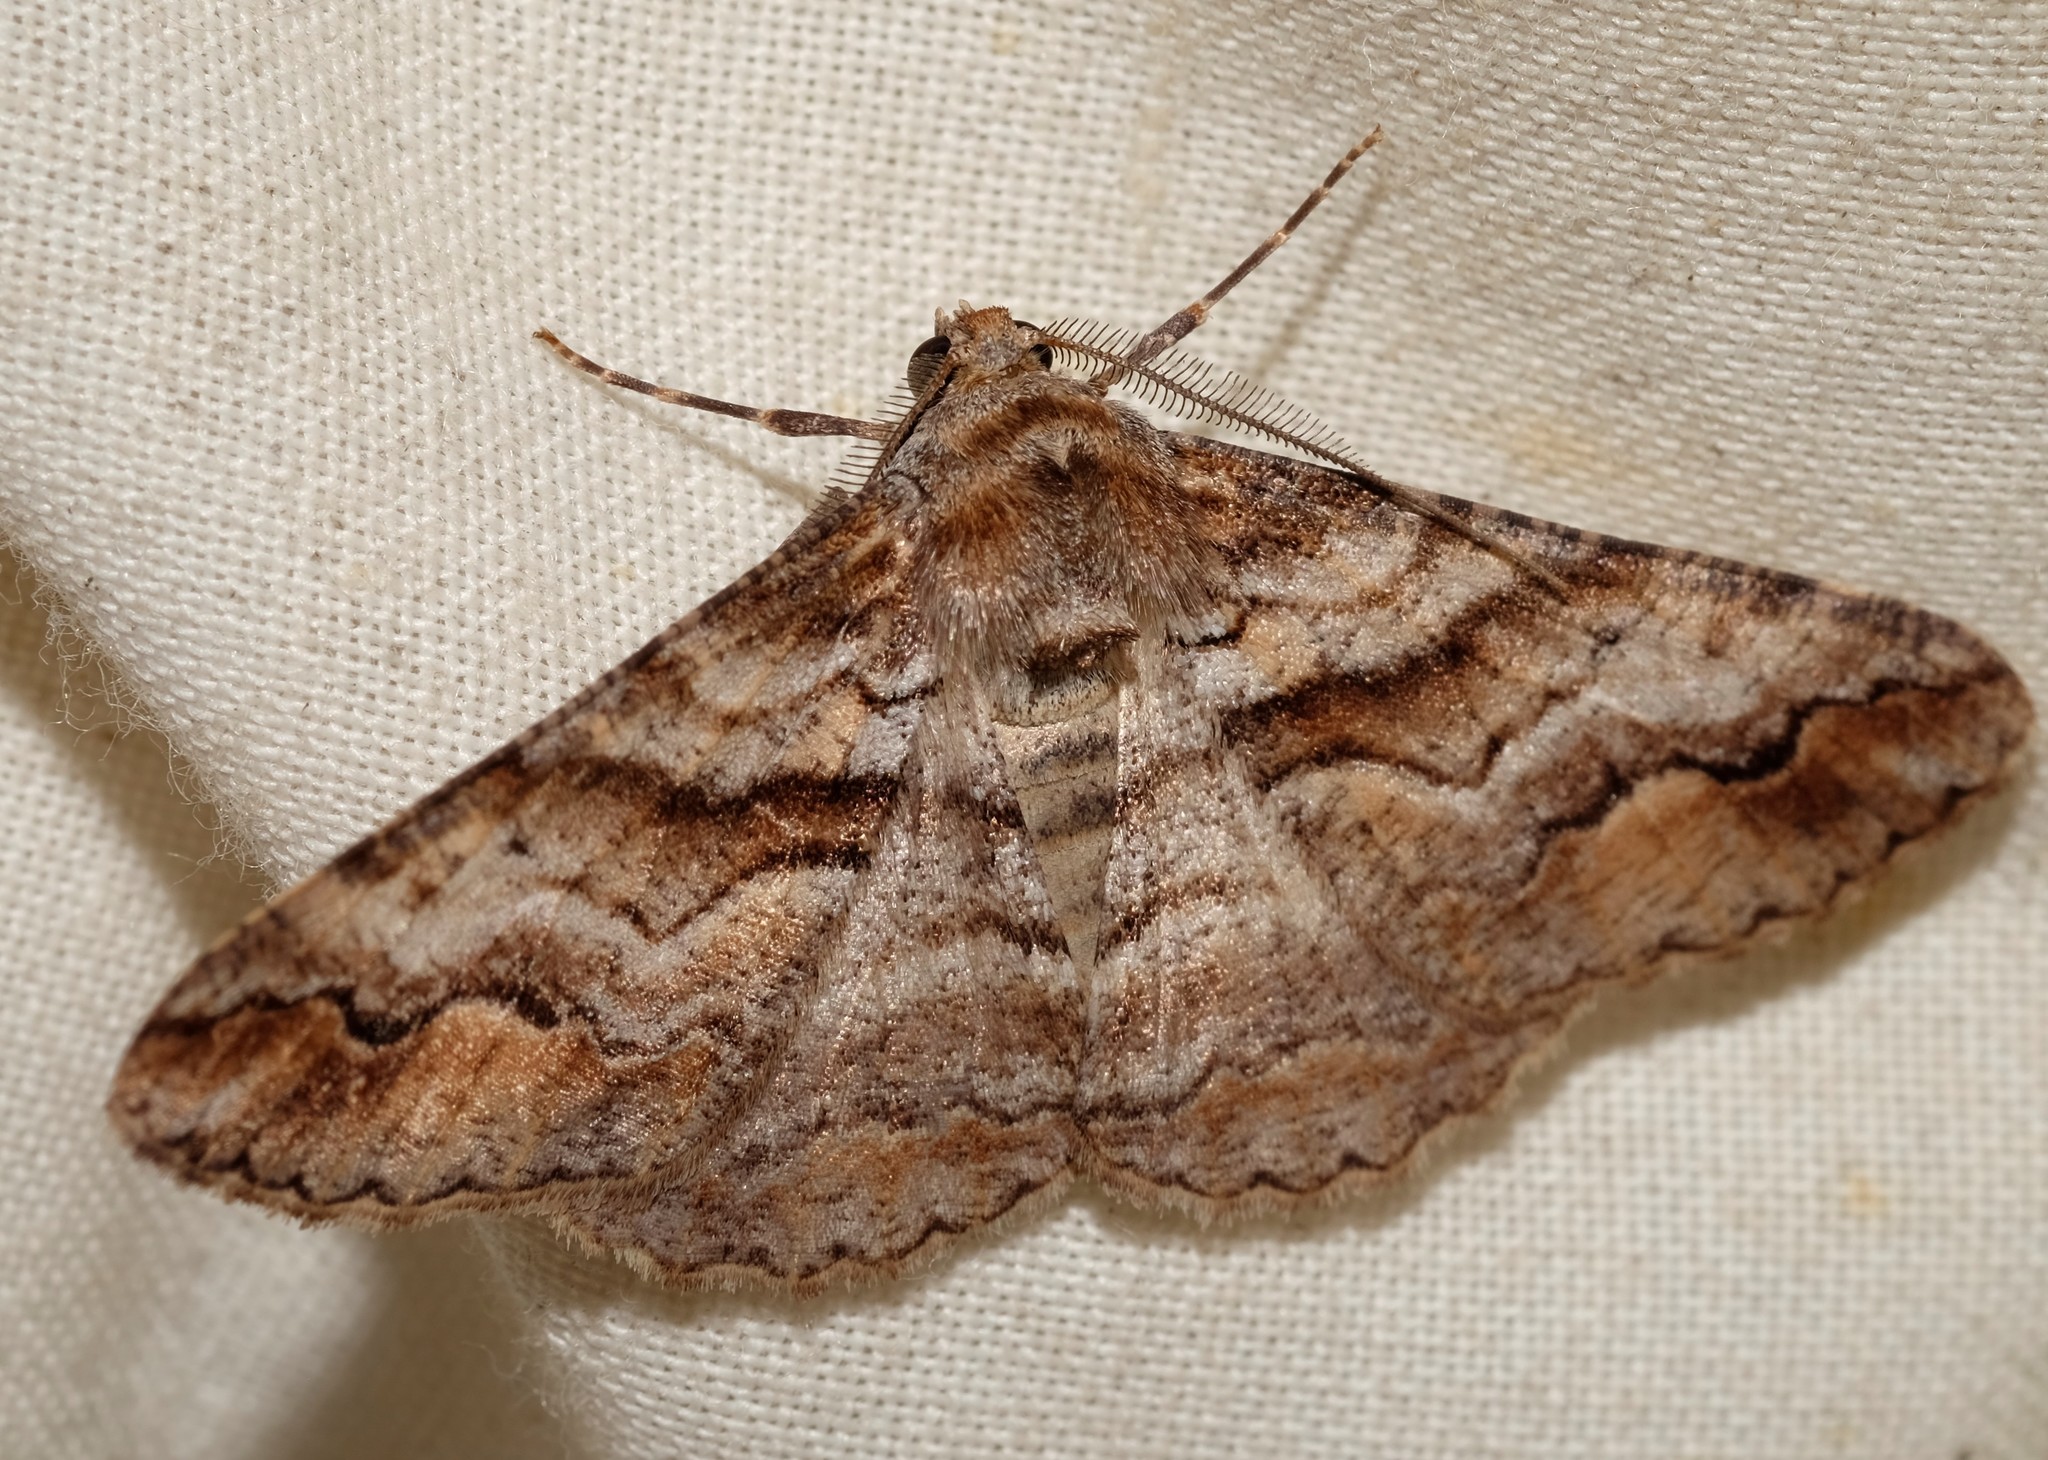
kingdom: Animalia
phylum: Arthropoda
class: Insecta
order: Lepidoptera
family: Geometridae
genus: Gastrinodes
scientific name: Gastrinodes bitaeniaria
